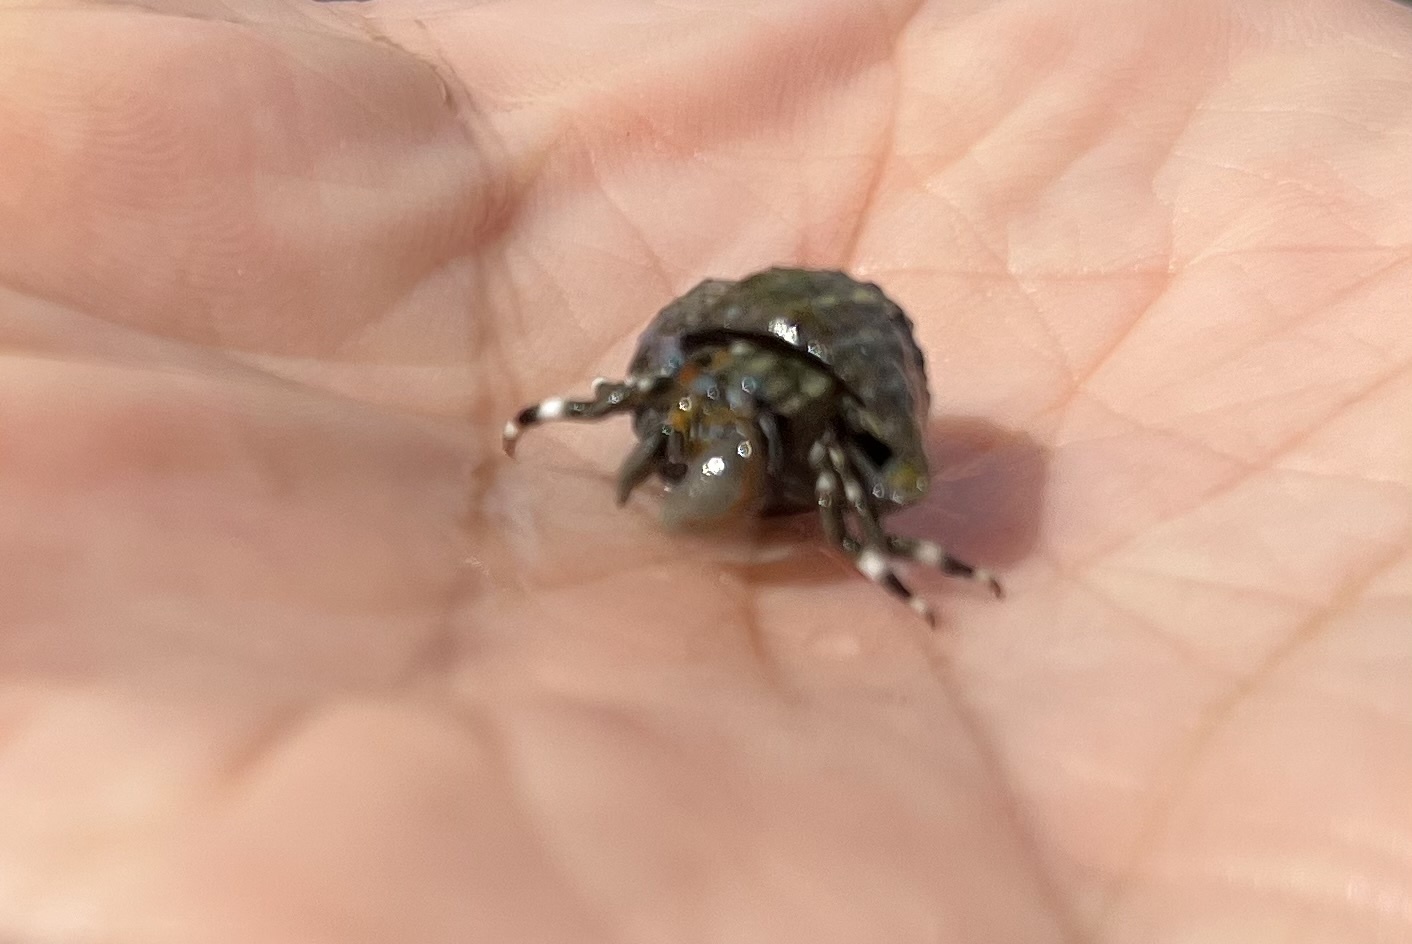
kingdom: Animalia
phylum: Arthropoda
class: Malacostraca
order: Decapoda
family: Diogenidae
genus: Calcinus
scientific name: Calcinus seurati
